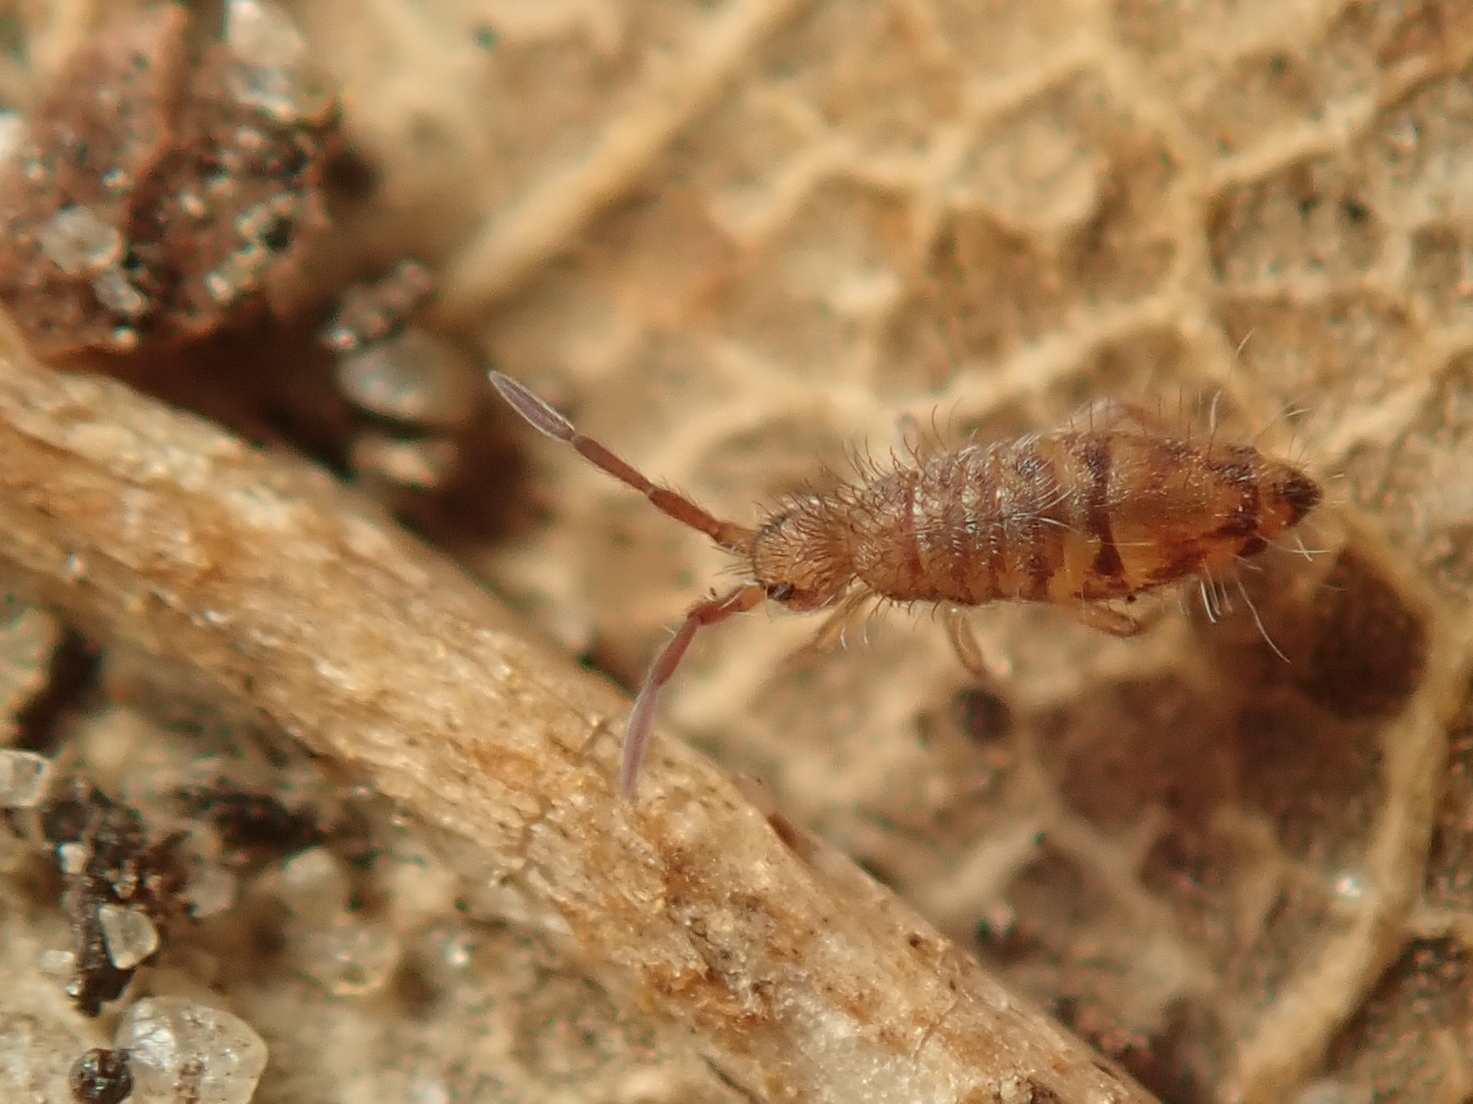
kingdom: Animalia
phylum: Arthropoda
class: Collembola
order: Entomobryomorpha
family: Entomobryidae
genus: Entomobrya
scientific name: Entomobrya multifasciata
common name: Springtail
